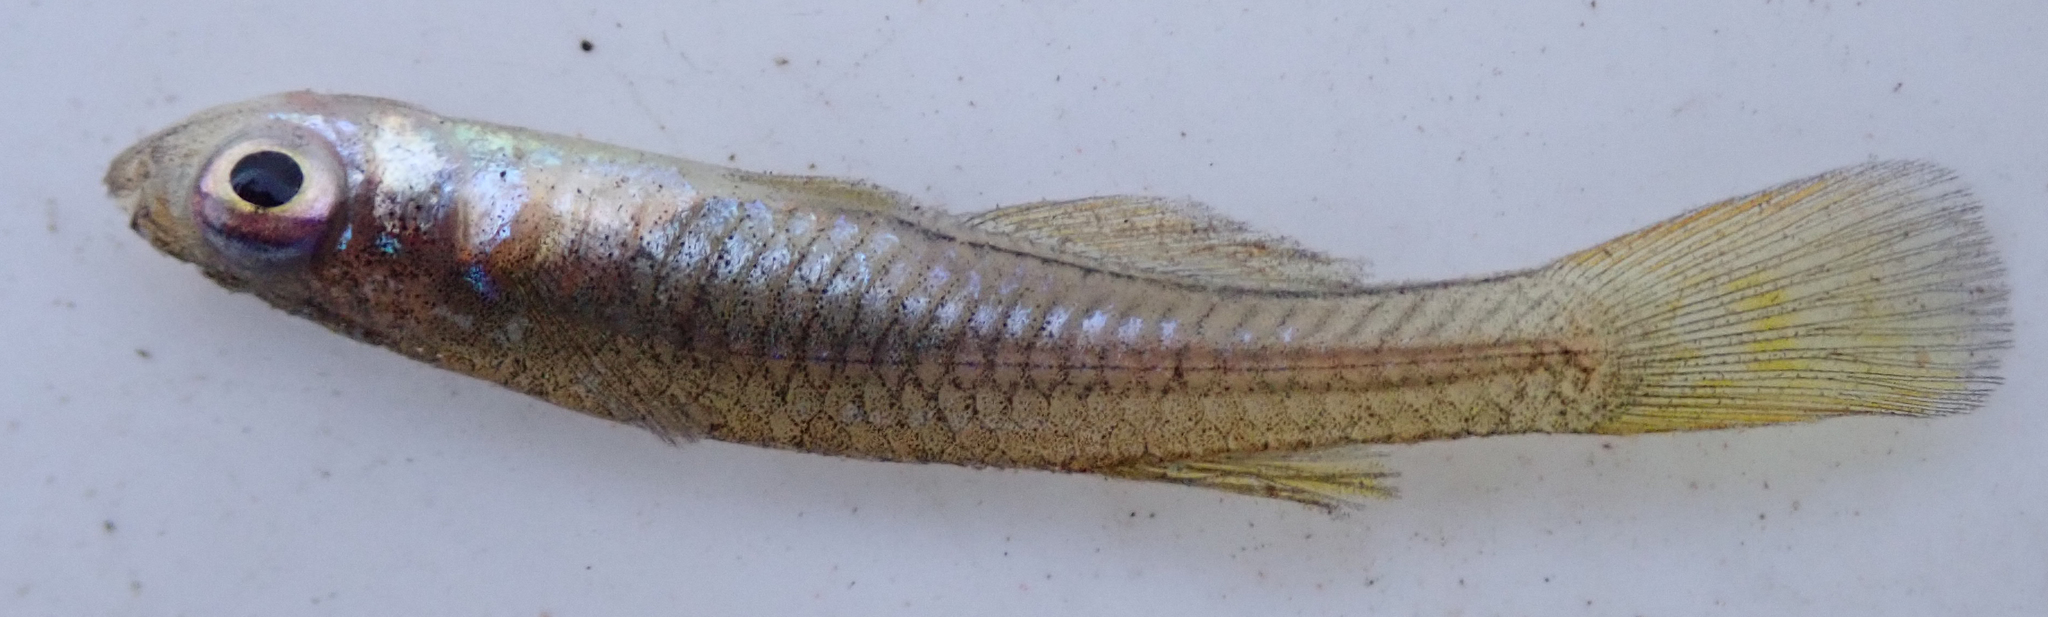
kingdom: Animalia
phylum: Chordata
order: Cyprinodontiformes
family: Poeciliidae
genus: Micropanchax
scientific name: Micropanchax johnstoni
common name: Johnston's topminnow
